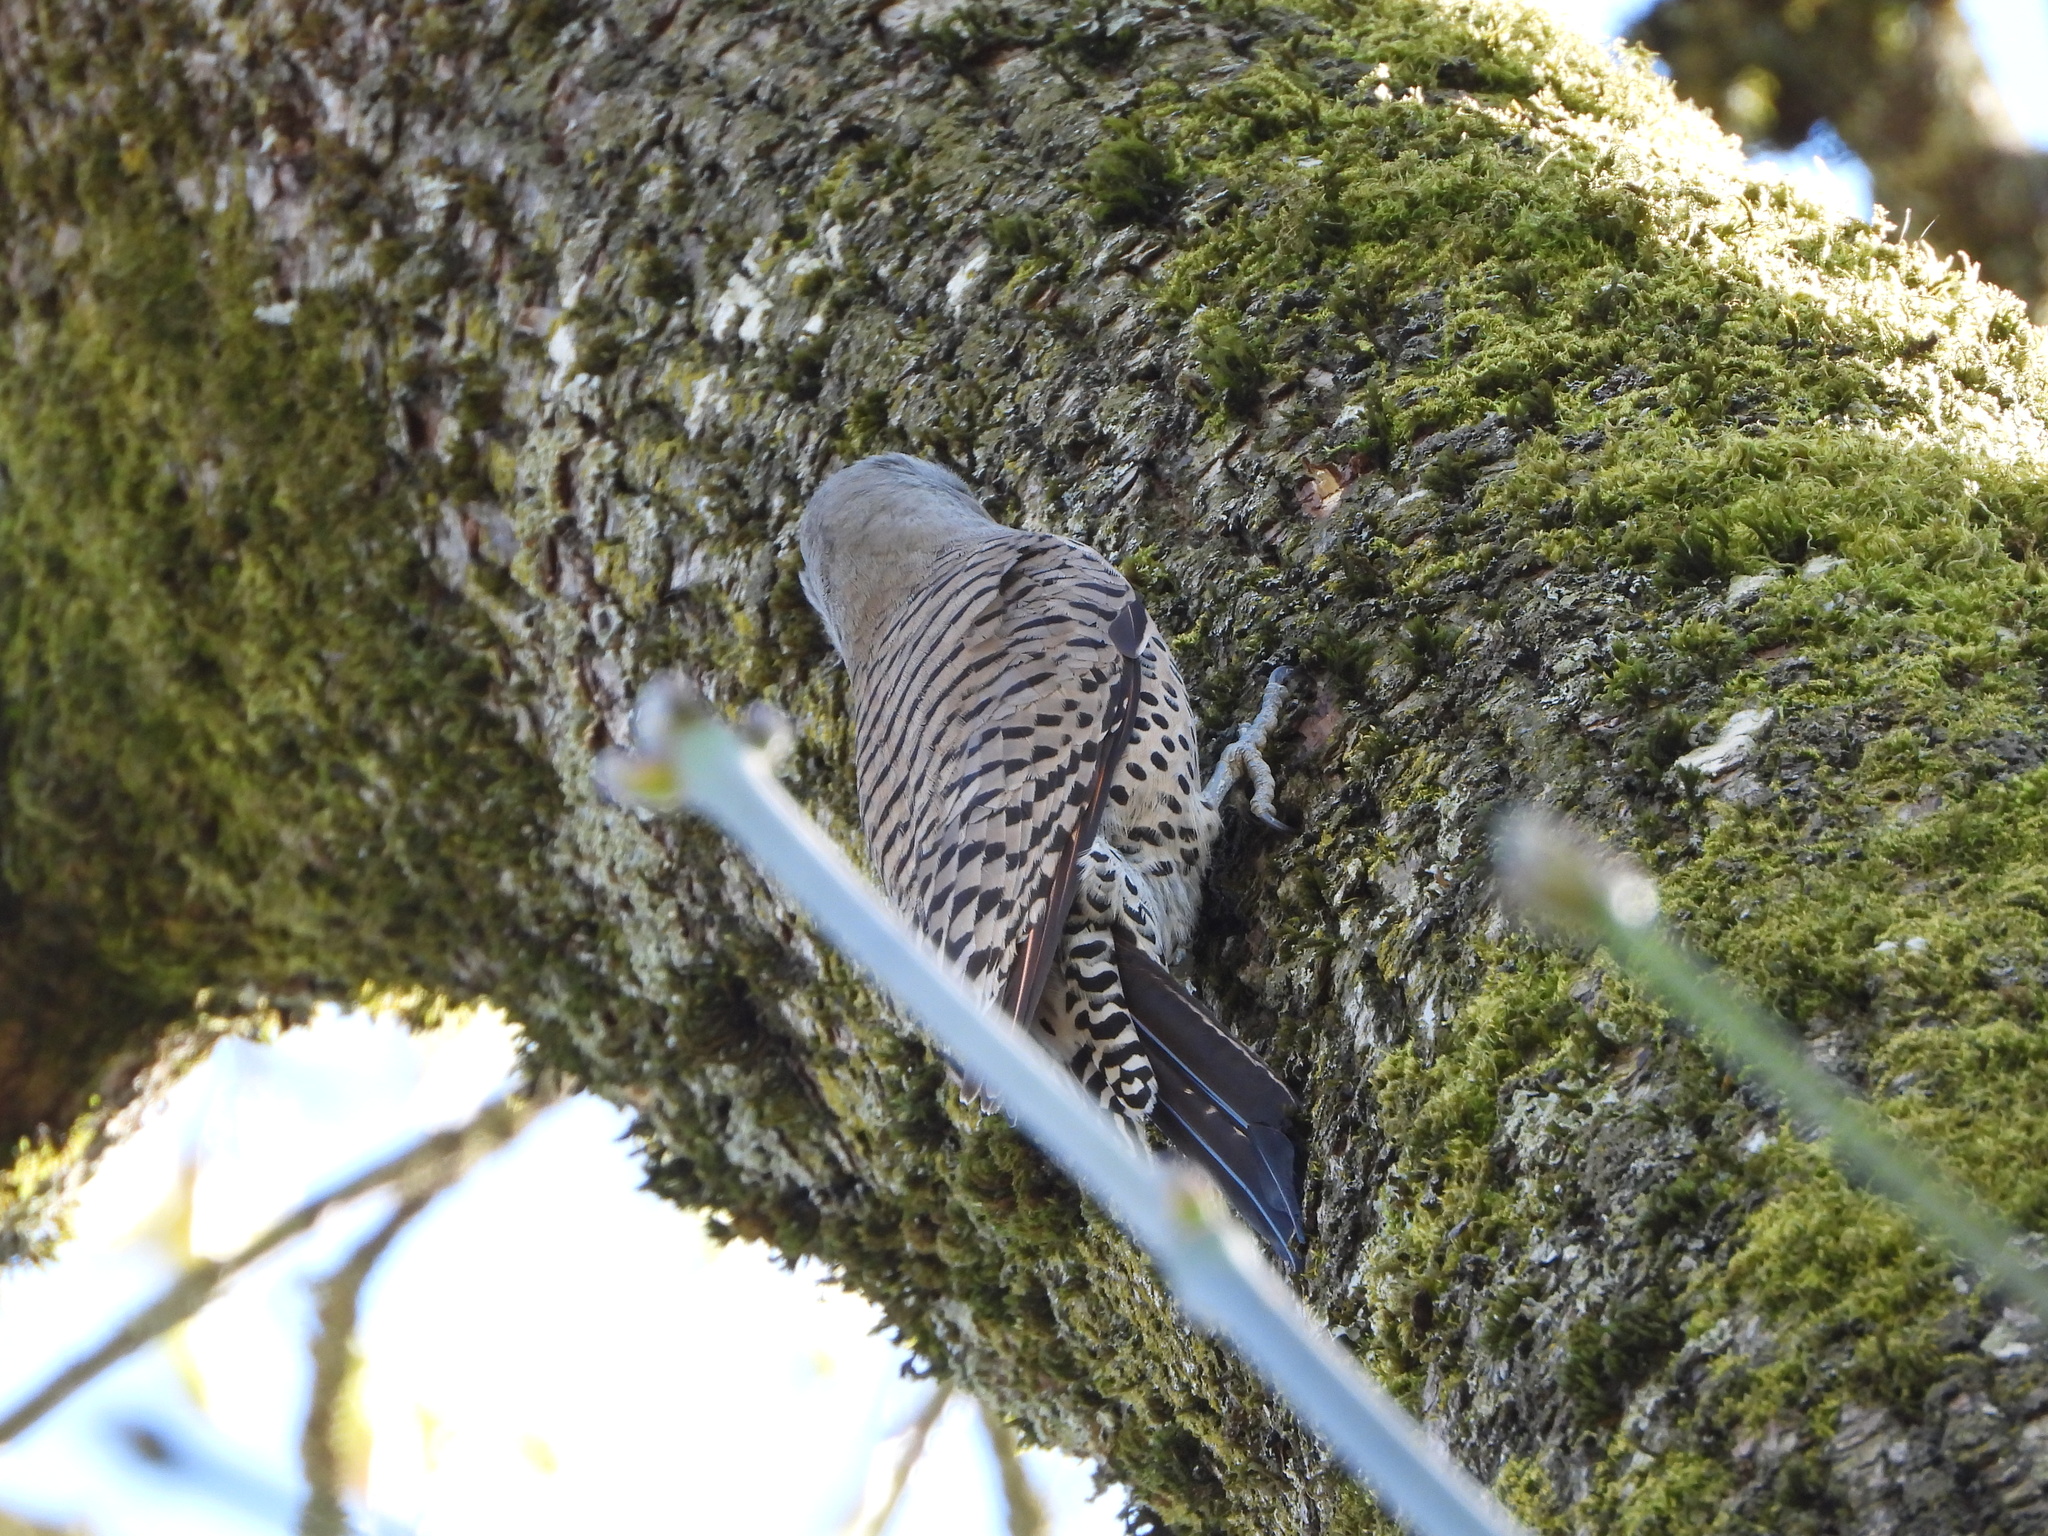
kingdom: Animalia
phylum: Chordata
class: Aves
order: Piciformes
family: Picidae
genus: Colaptes
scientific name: Colaptes auratus
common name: Northern flicker
